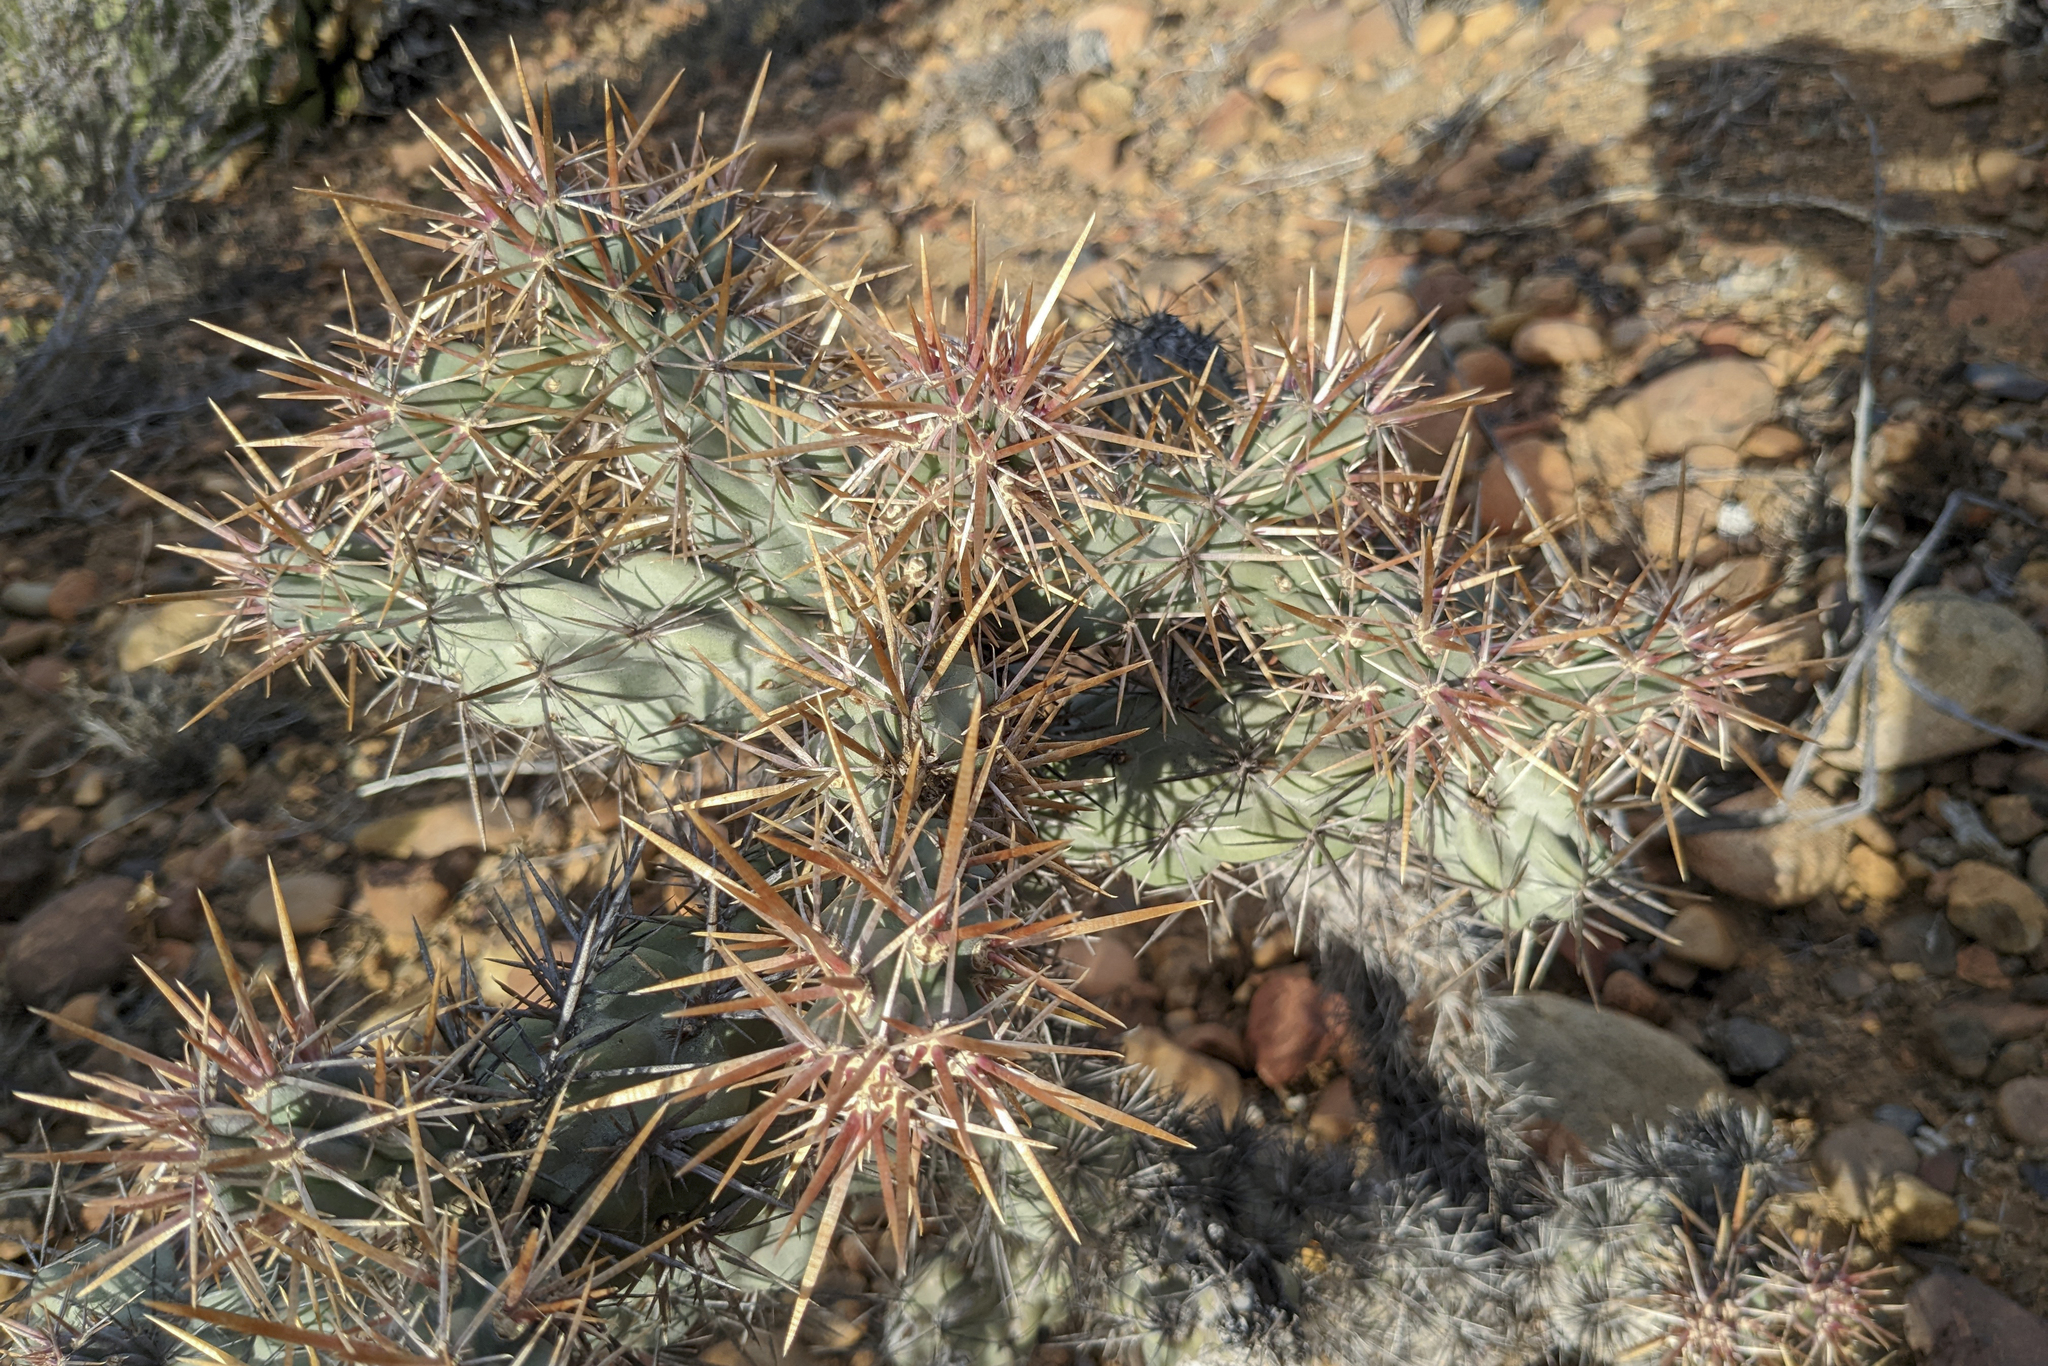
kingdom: Plantae
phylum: Tracheophyta
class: Magnoliopsida
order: Caryophyllales
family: Cactaceae
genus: Cylindropuntia
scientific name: Cylindropuntia cholla
